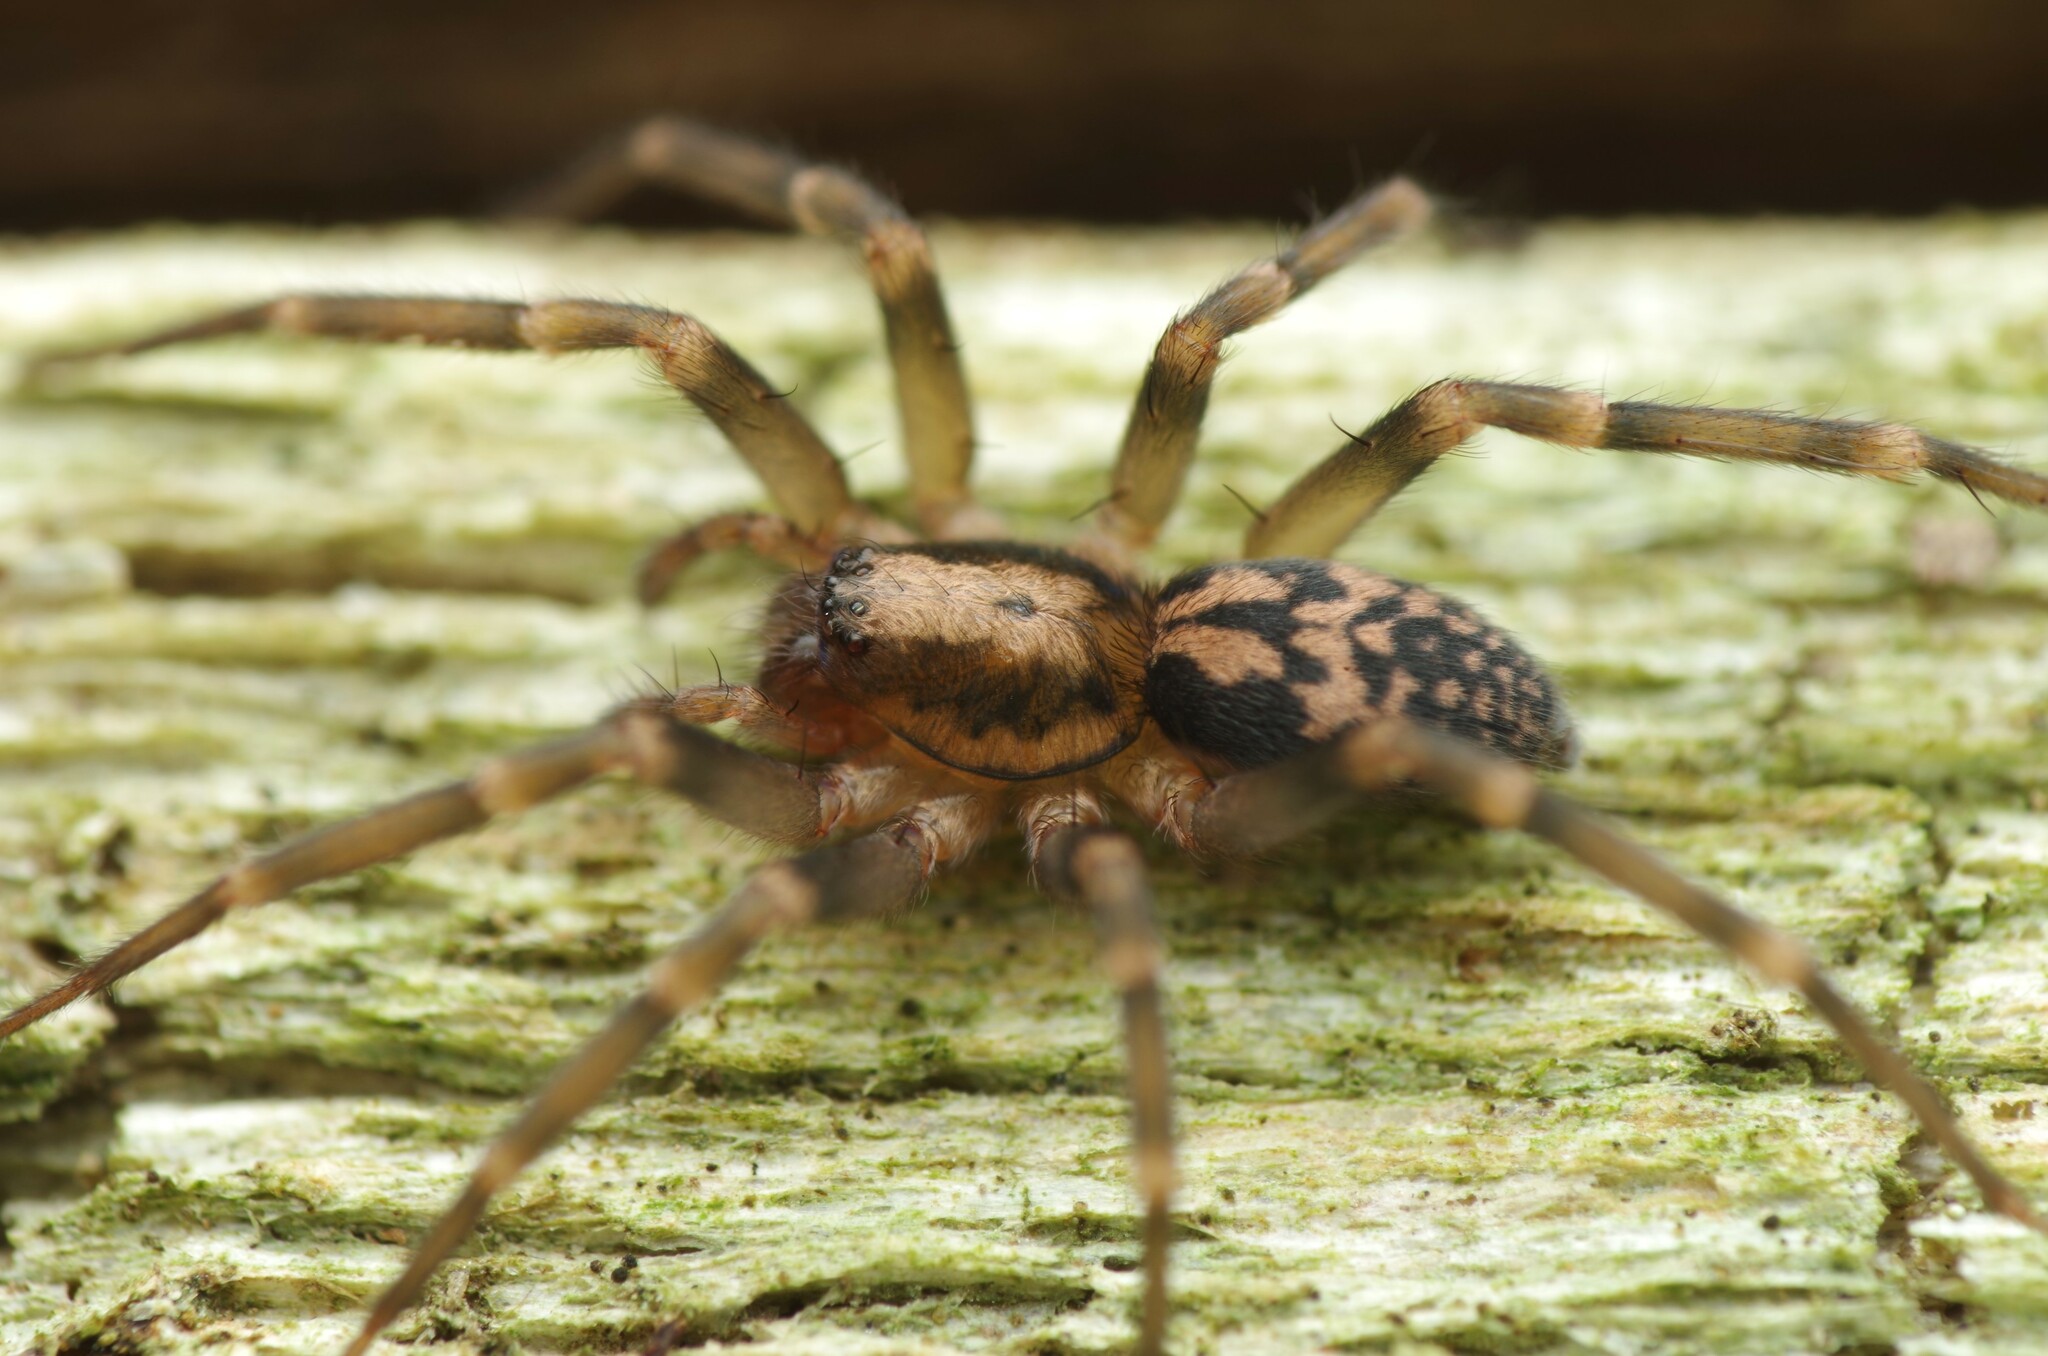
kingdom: Animalia
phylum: Arthropoda
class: Arachnida
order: Araneae
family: Liocranidae
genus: Liocranum
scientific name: Liocranum rupicola
